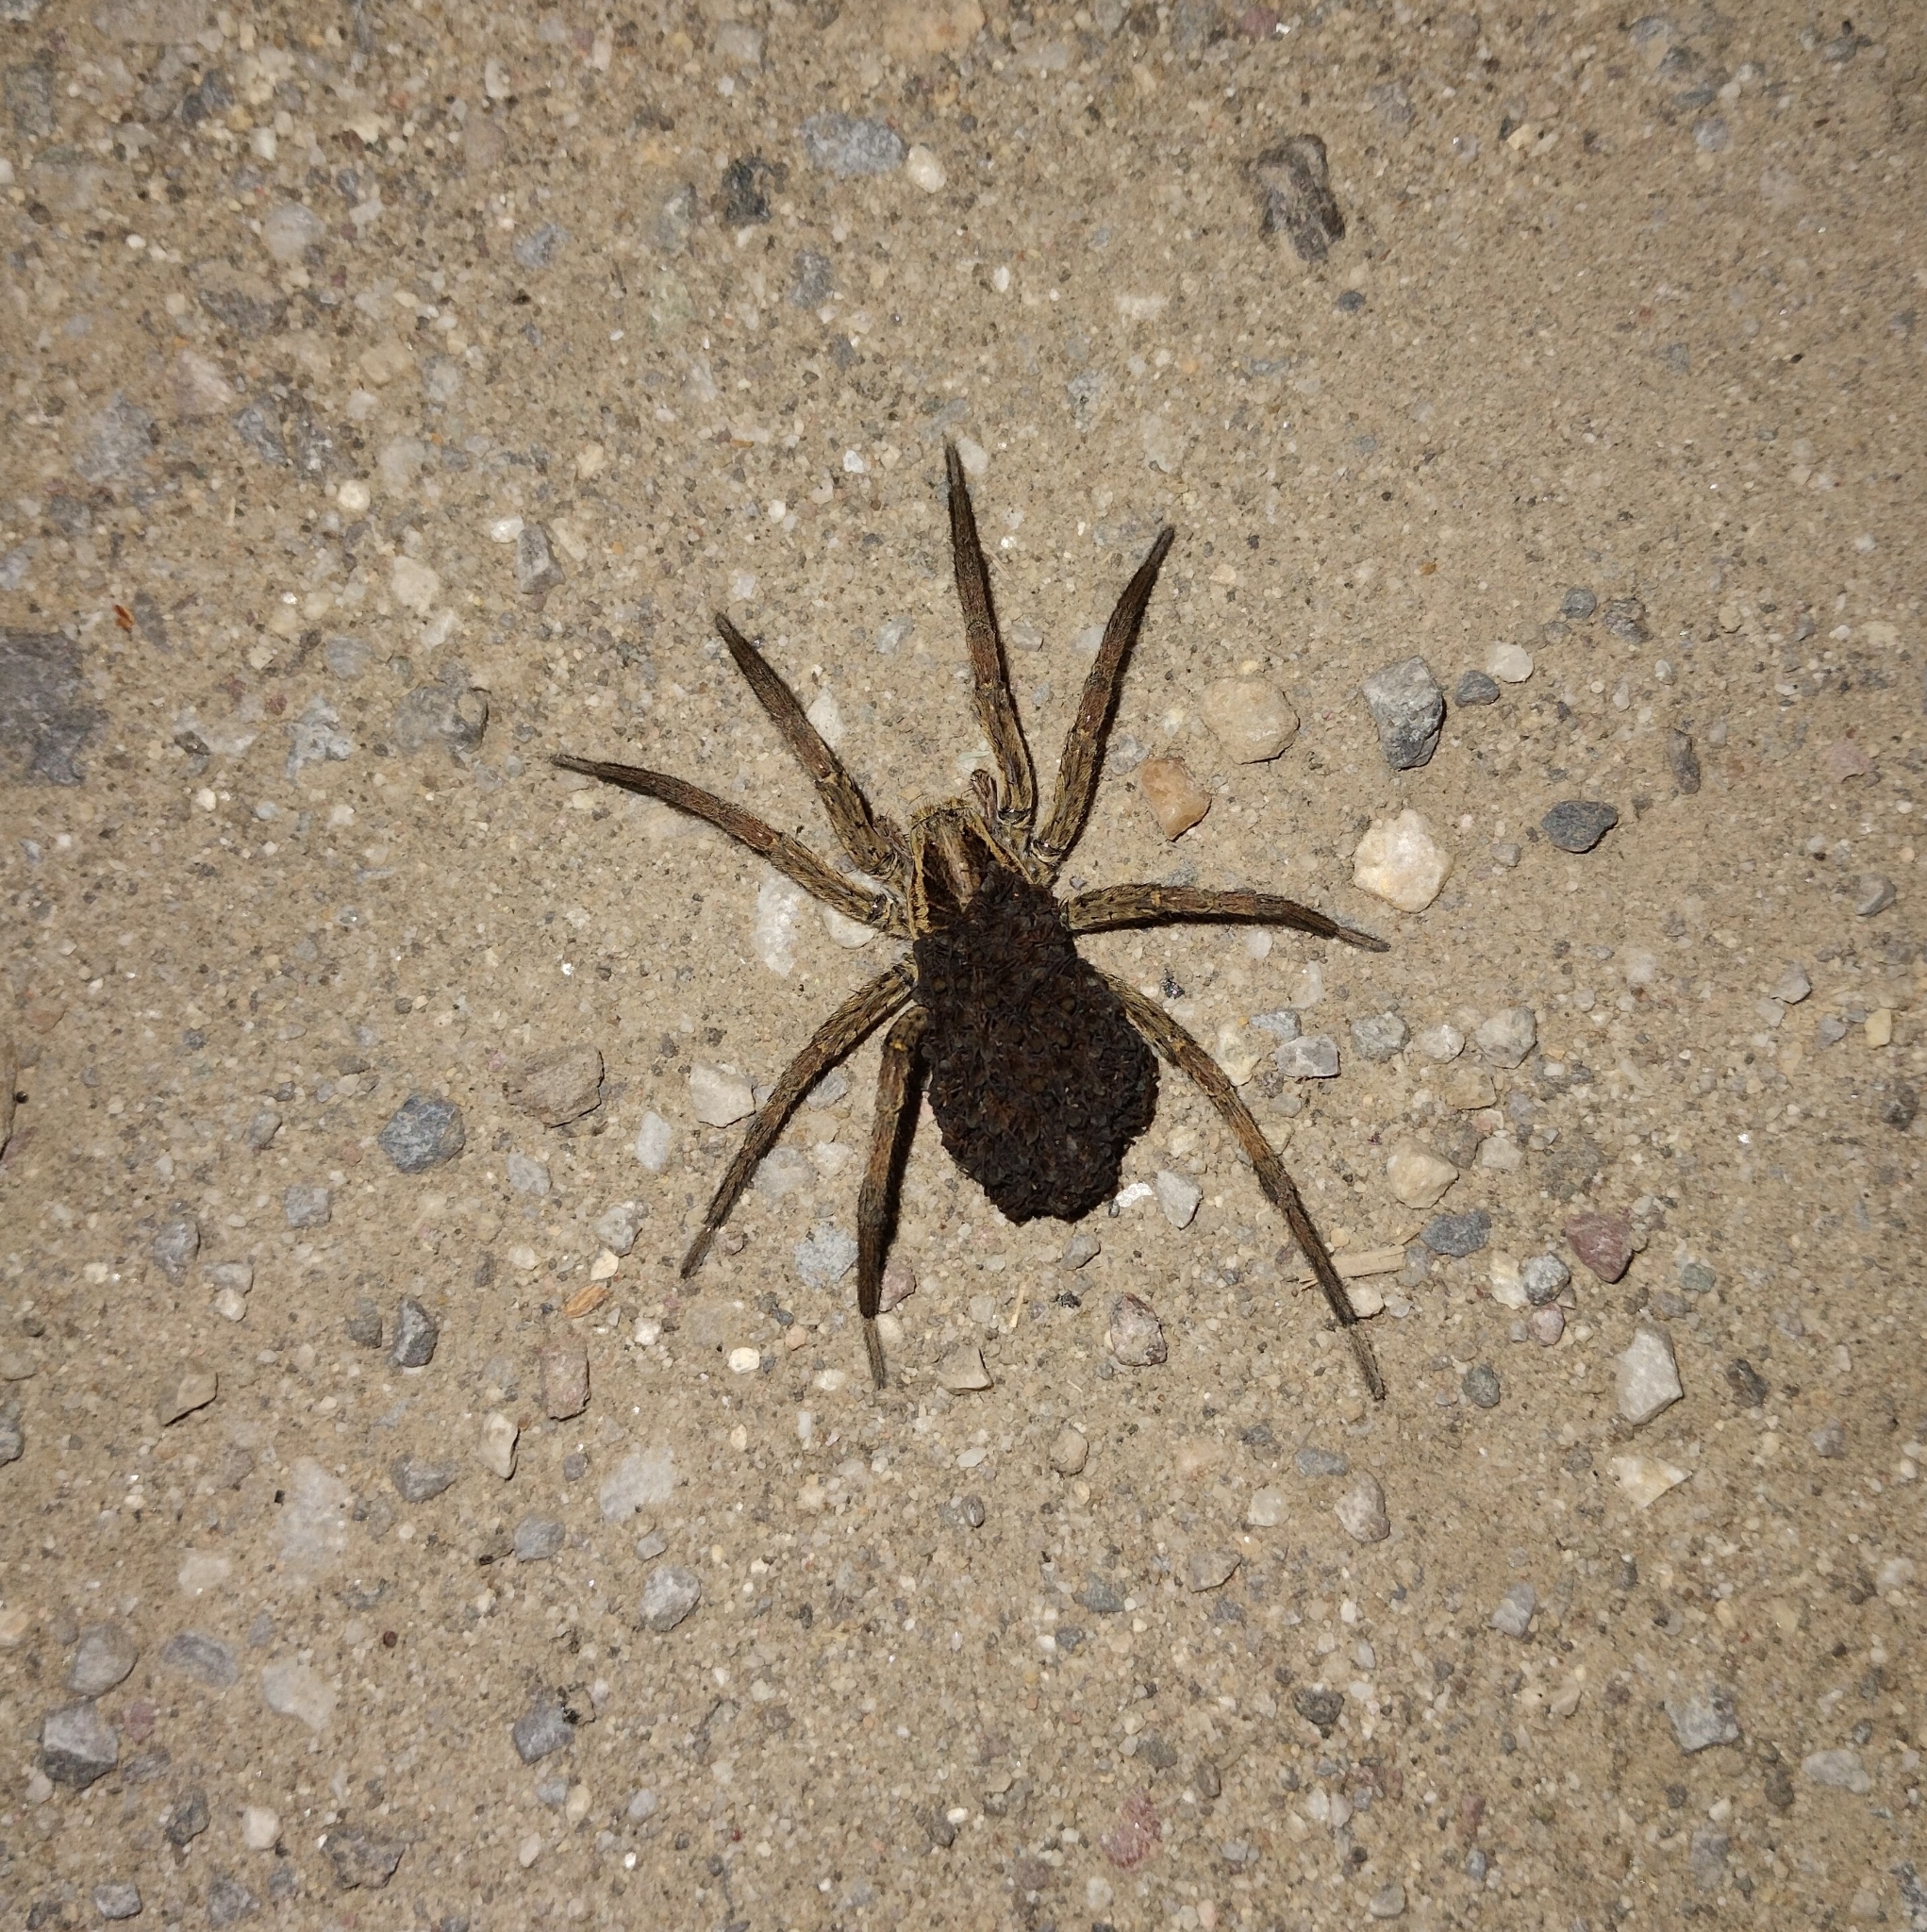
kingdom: Animalia
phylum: Arthropoda
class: Arachnida
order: Araneae
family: Lycosidae
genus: Hogna
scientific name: Hogna radiata
